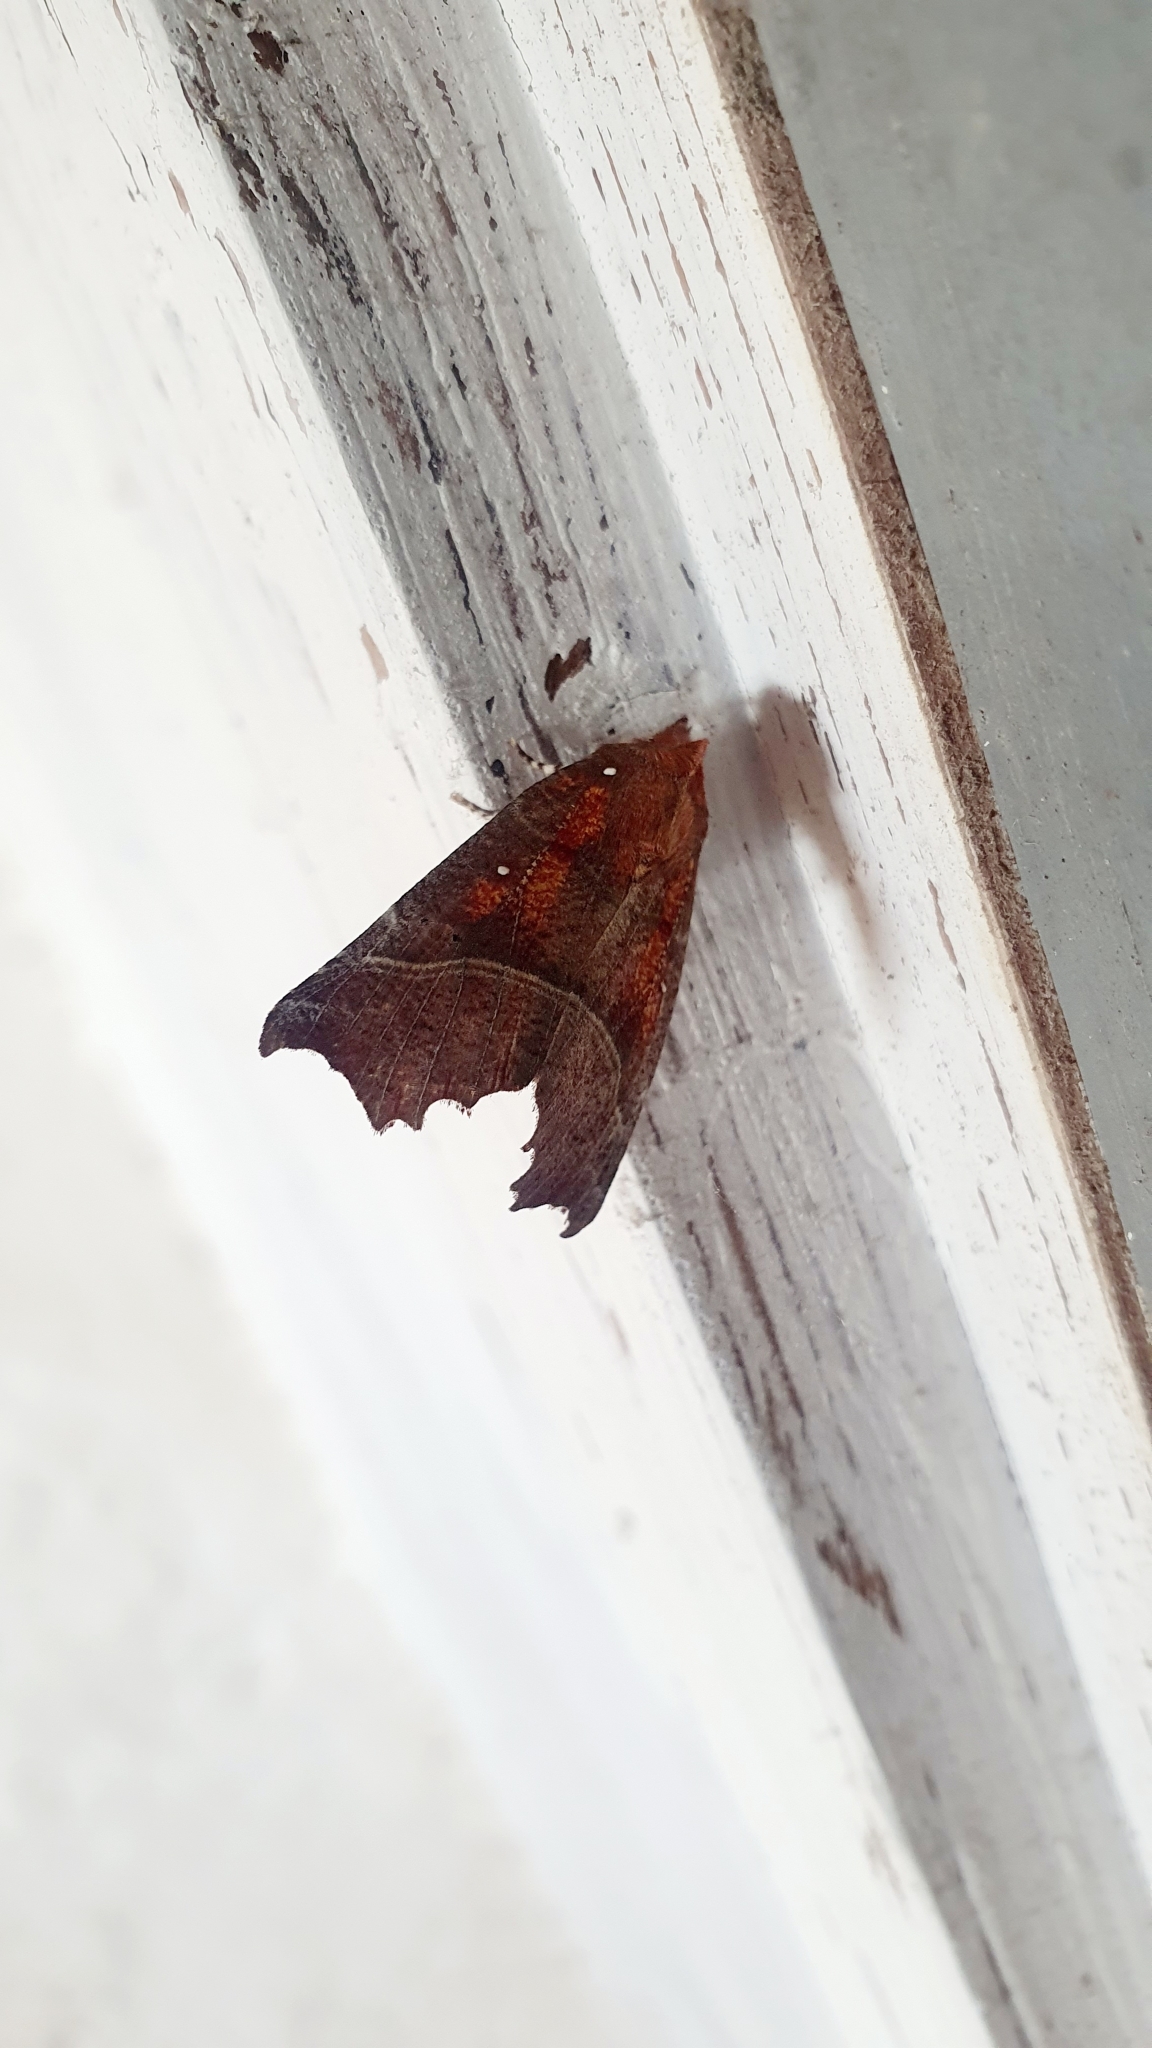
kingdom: Animalia
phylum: Arthropoda
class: Insecta
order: Lepidoptera
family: Erebidae
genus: Scoliopteryx
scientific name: Scoliopteryx libatrix
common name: Herald
